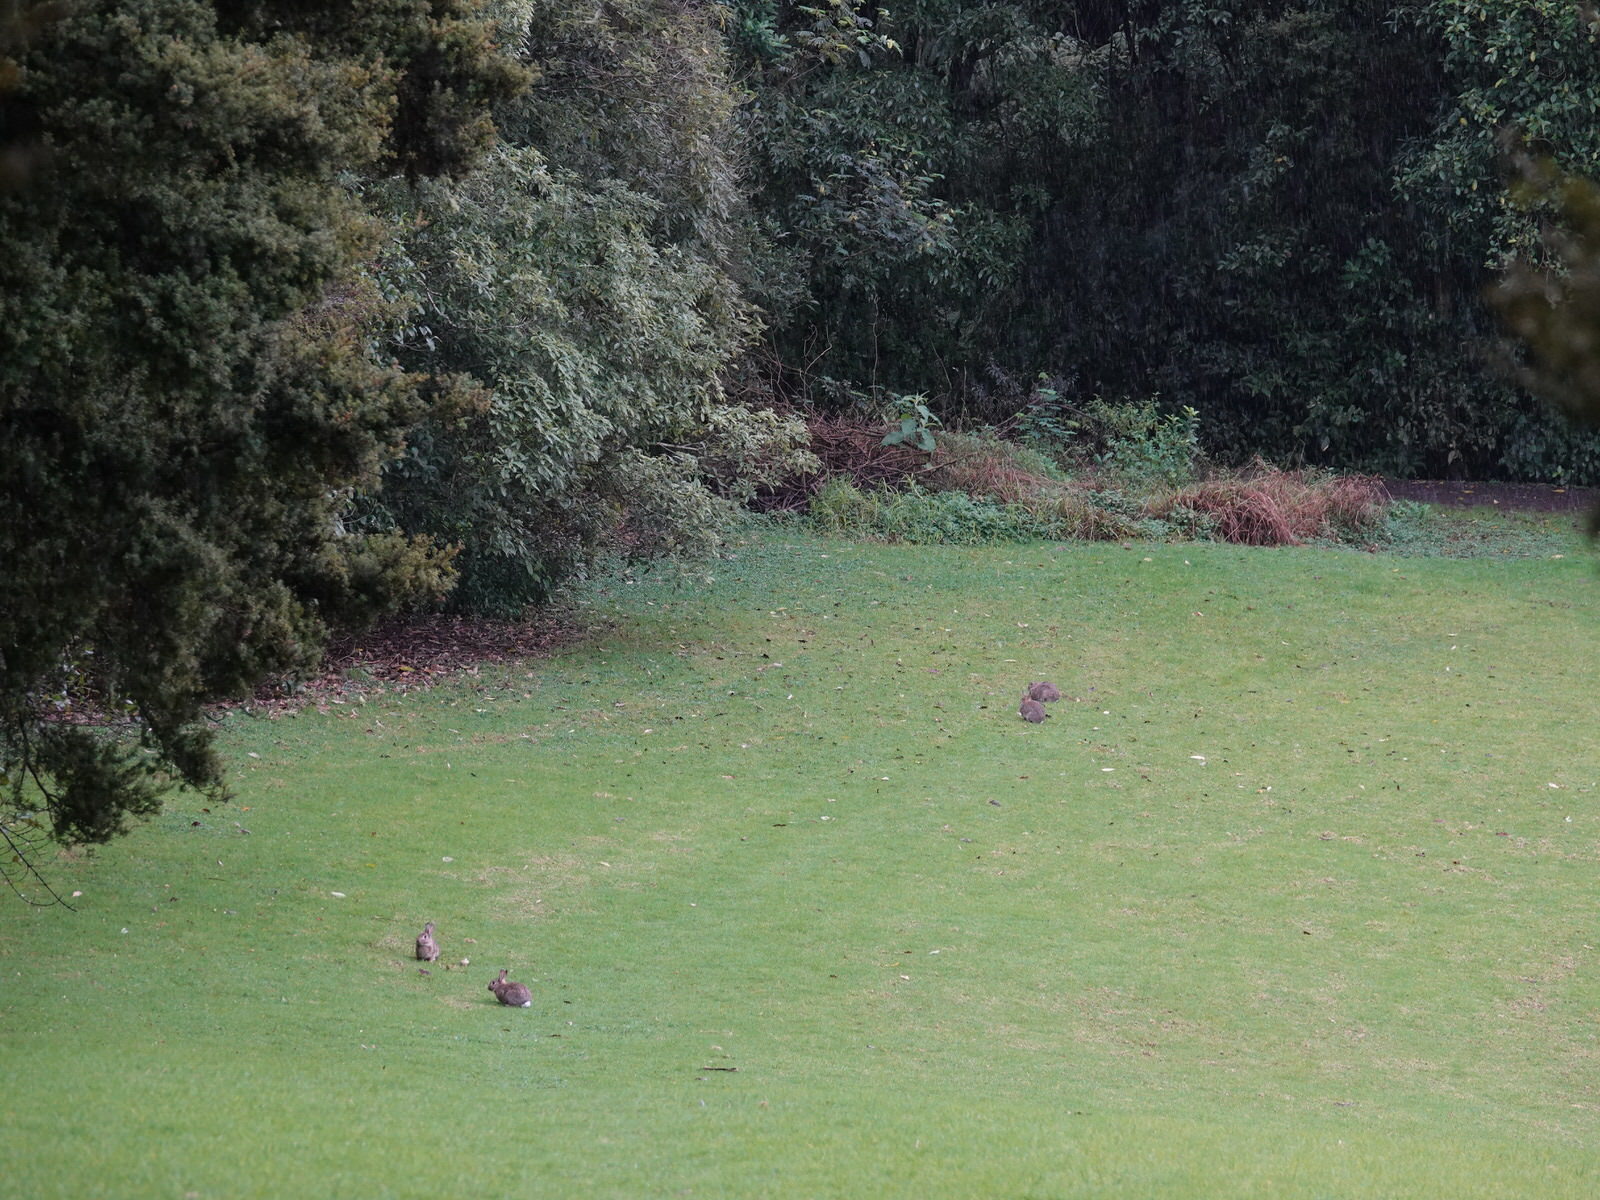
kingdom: Animalia
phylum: Chordata
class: Mammalia
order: Lagomorpha
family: Leporidae
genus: Oryctolagus
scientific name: Oryctolagus cuniculus
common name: European rabbit
